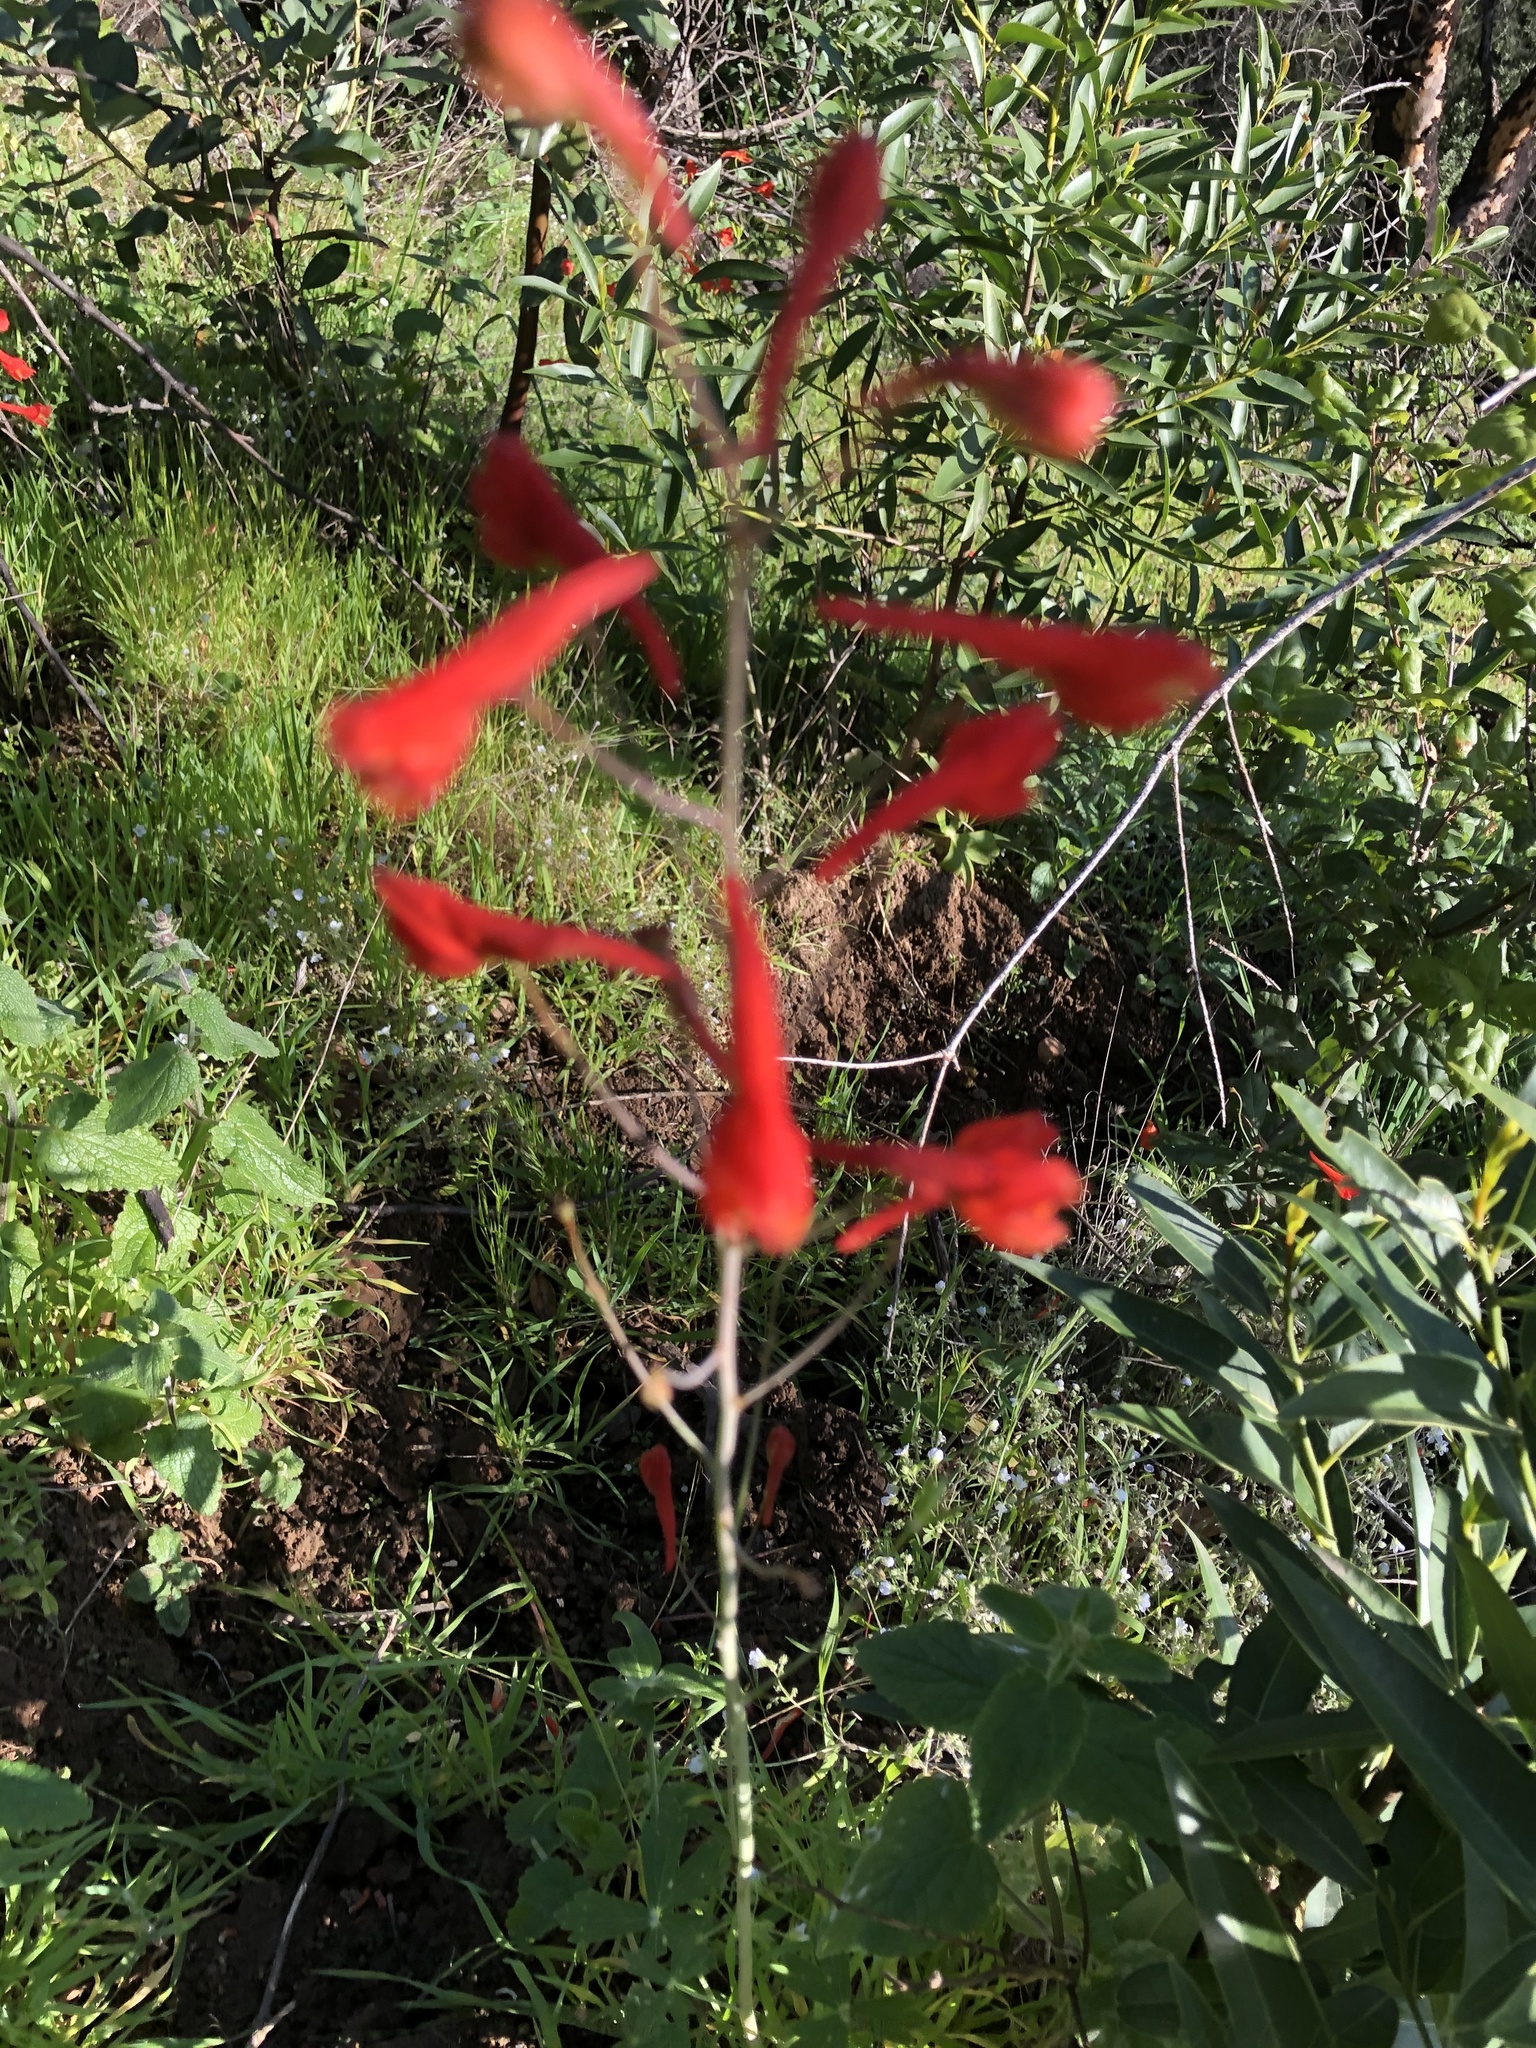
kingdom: Plantae
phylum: Tracheophyta
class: Magnoliopsida
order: Ranunculales
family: Ranunculaceae
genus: Delphinium
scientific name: Delphinium nudicaule
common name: Red larkspur
